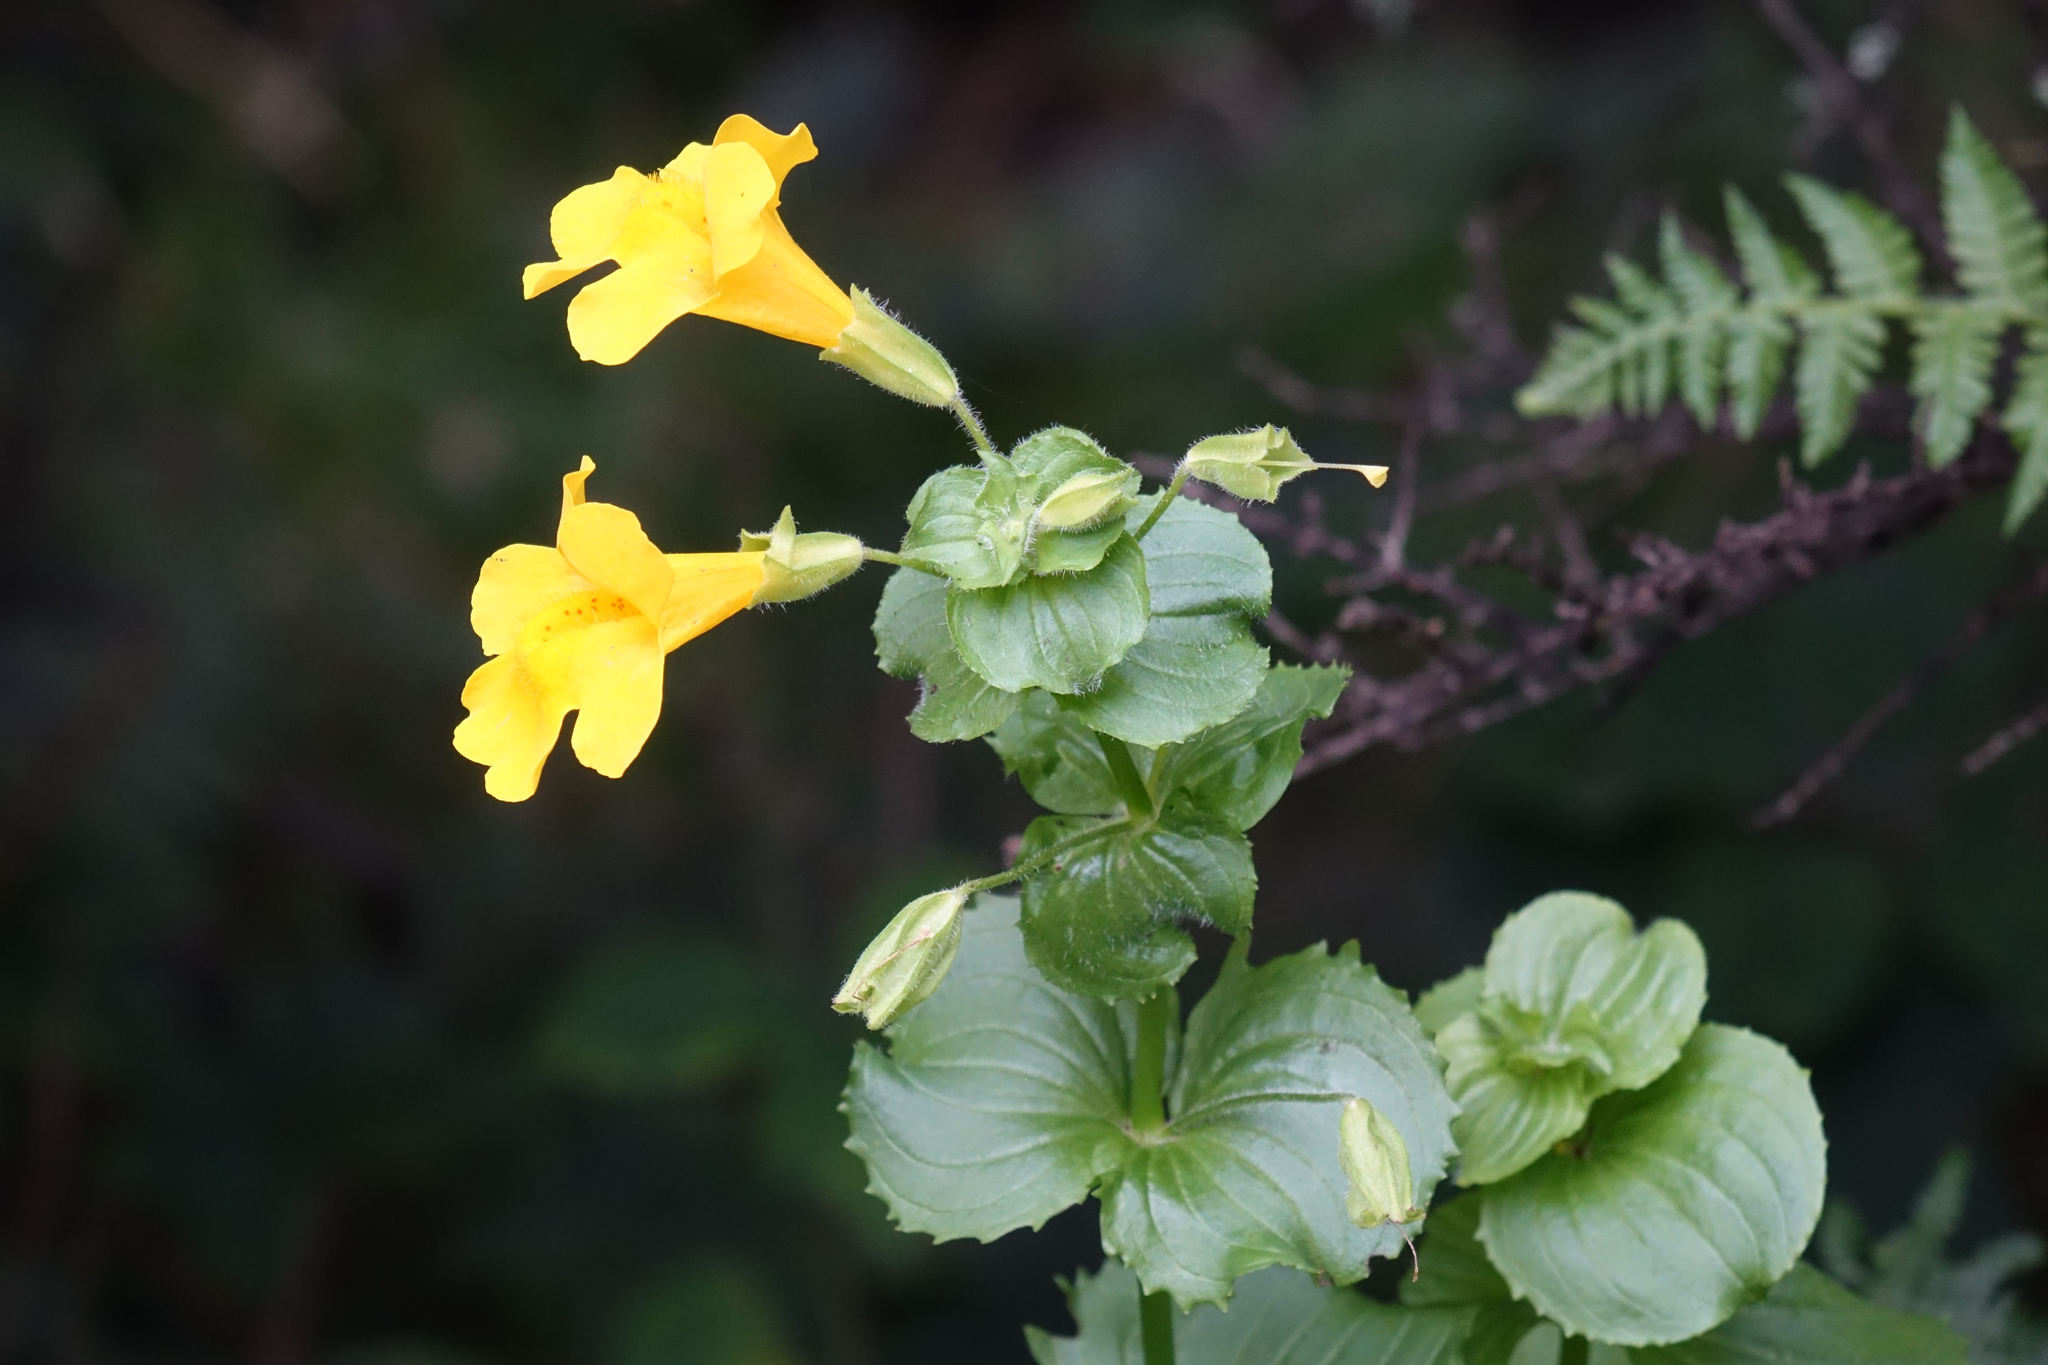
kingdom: Plantae
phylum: Tracheophyta
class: Magnoliopsida
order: Lamiales
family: Phrymaceae
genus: Erythranthe
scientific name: Erythranthe guttata
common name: Monkeyflower
